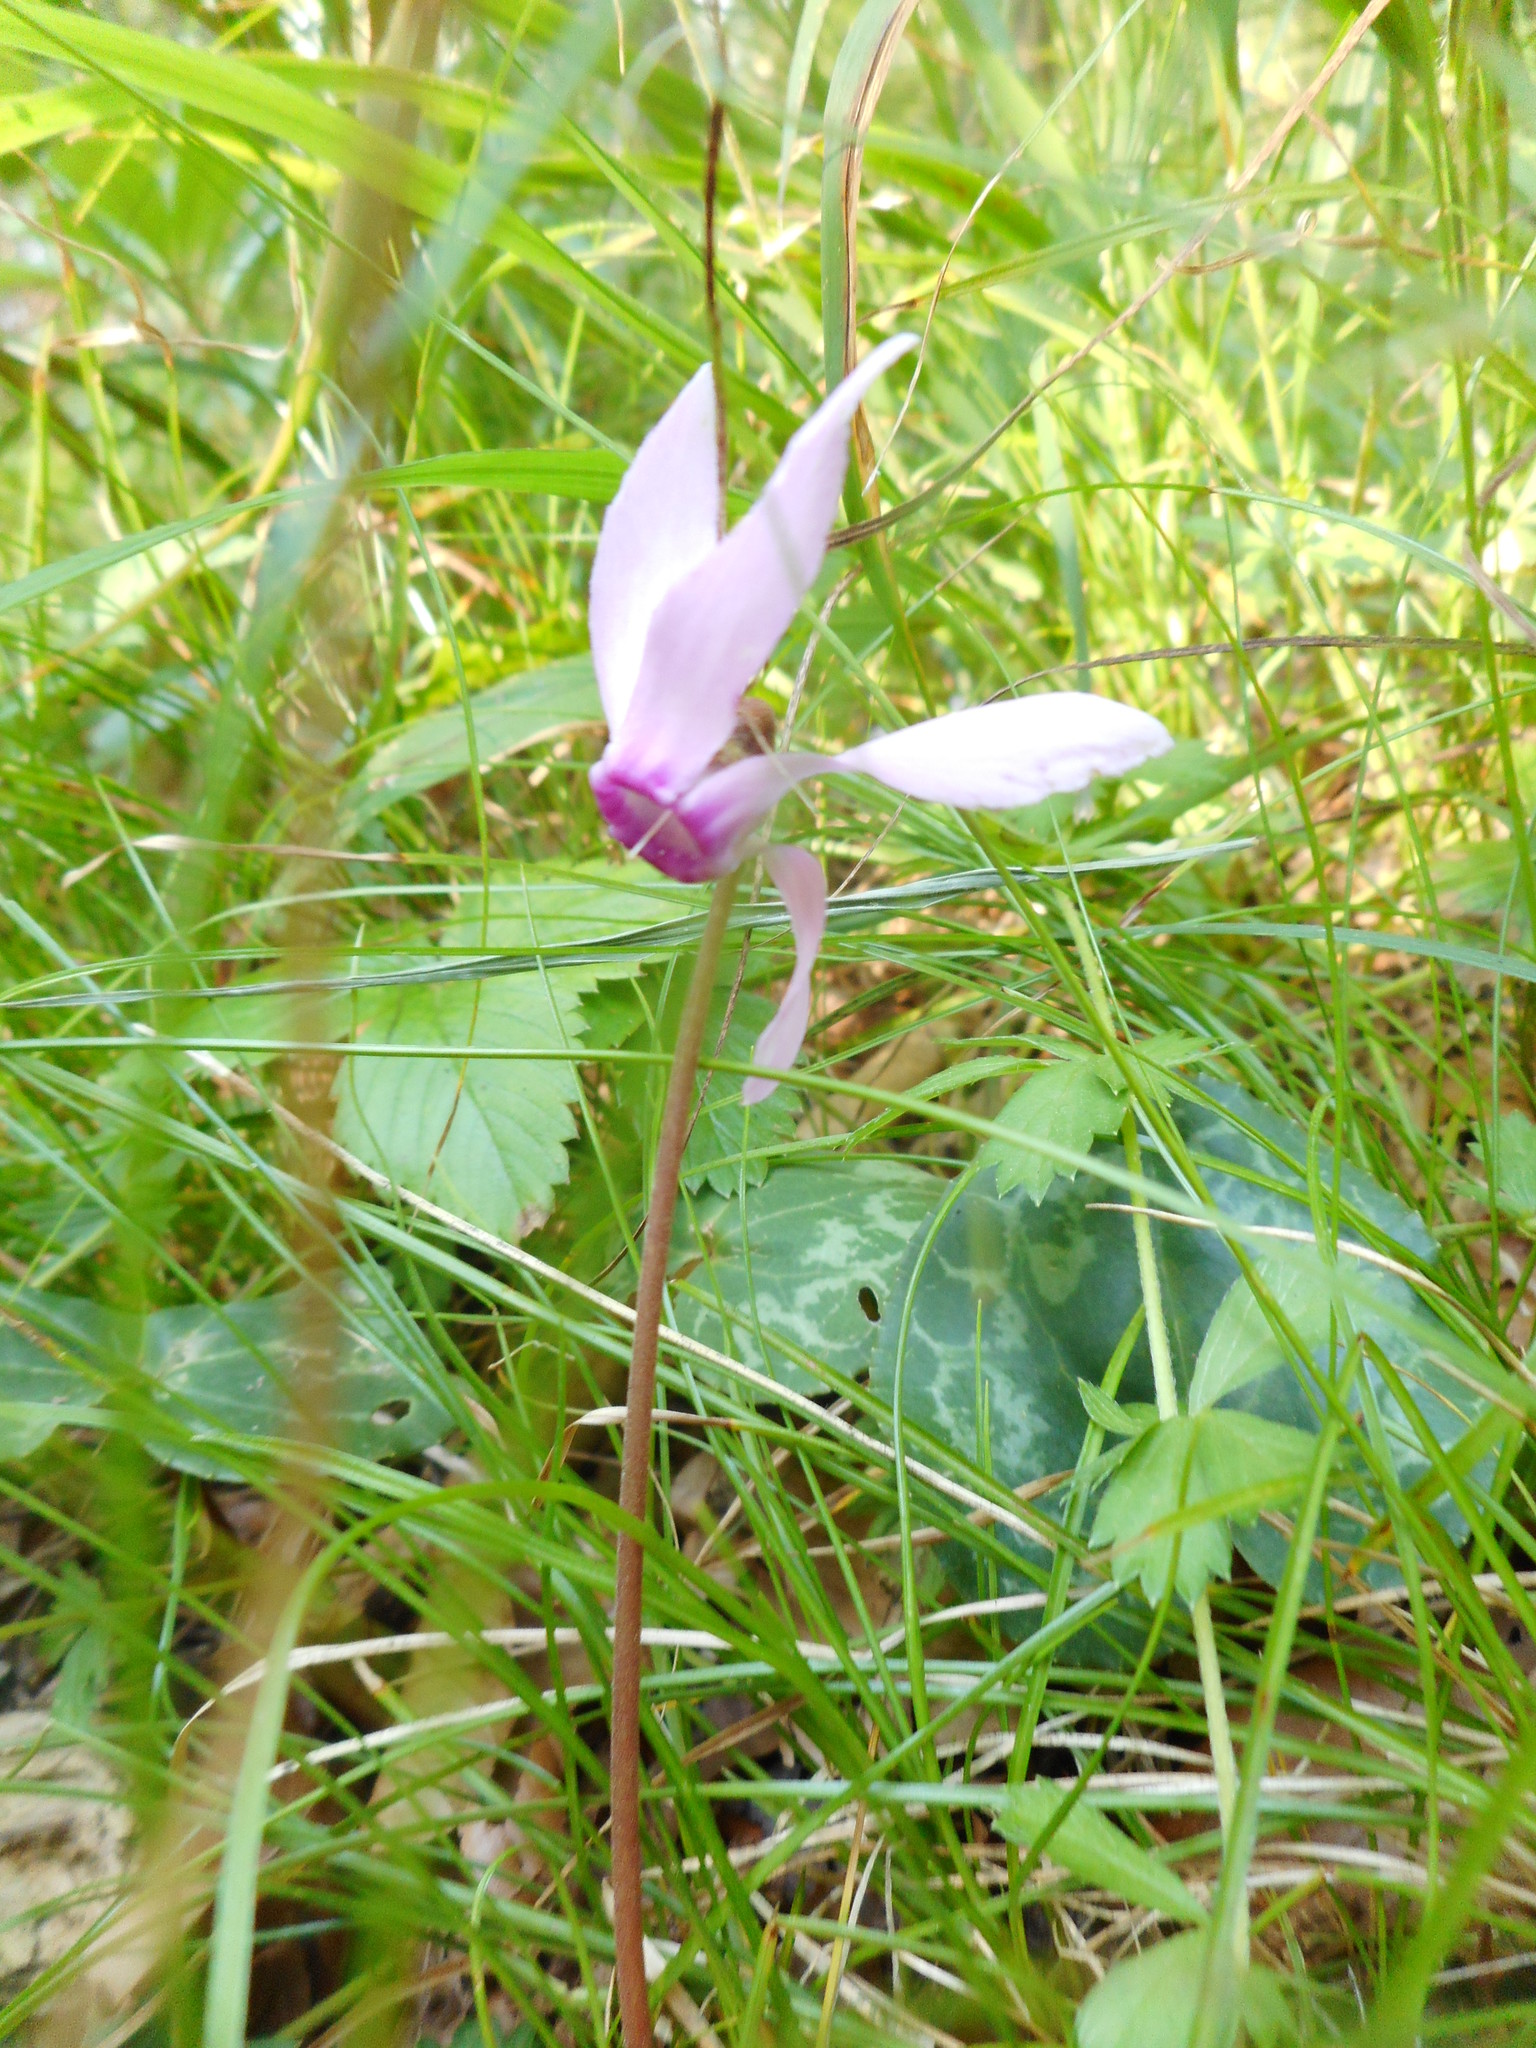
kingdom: Plantae
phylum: Tracheophyta
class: Magnoliopsida
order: Ericales
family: Primulaceae
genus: Cyclamen
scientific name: Cyclamen purpurascens
